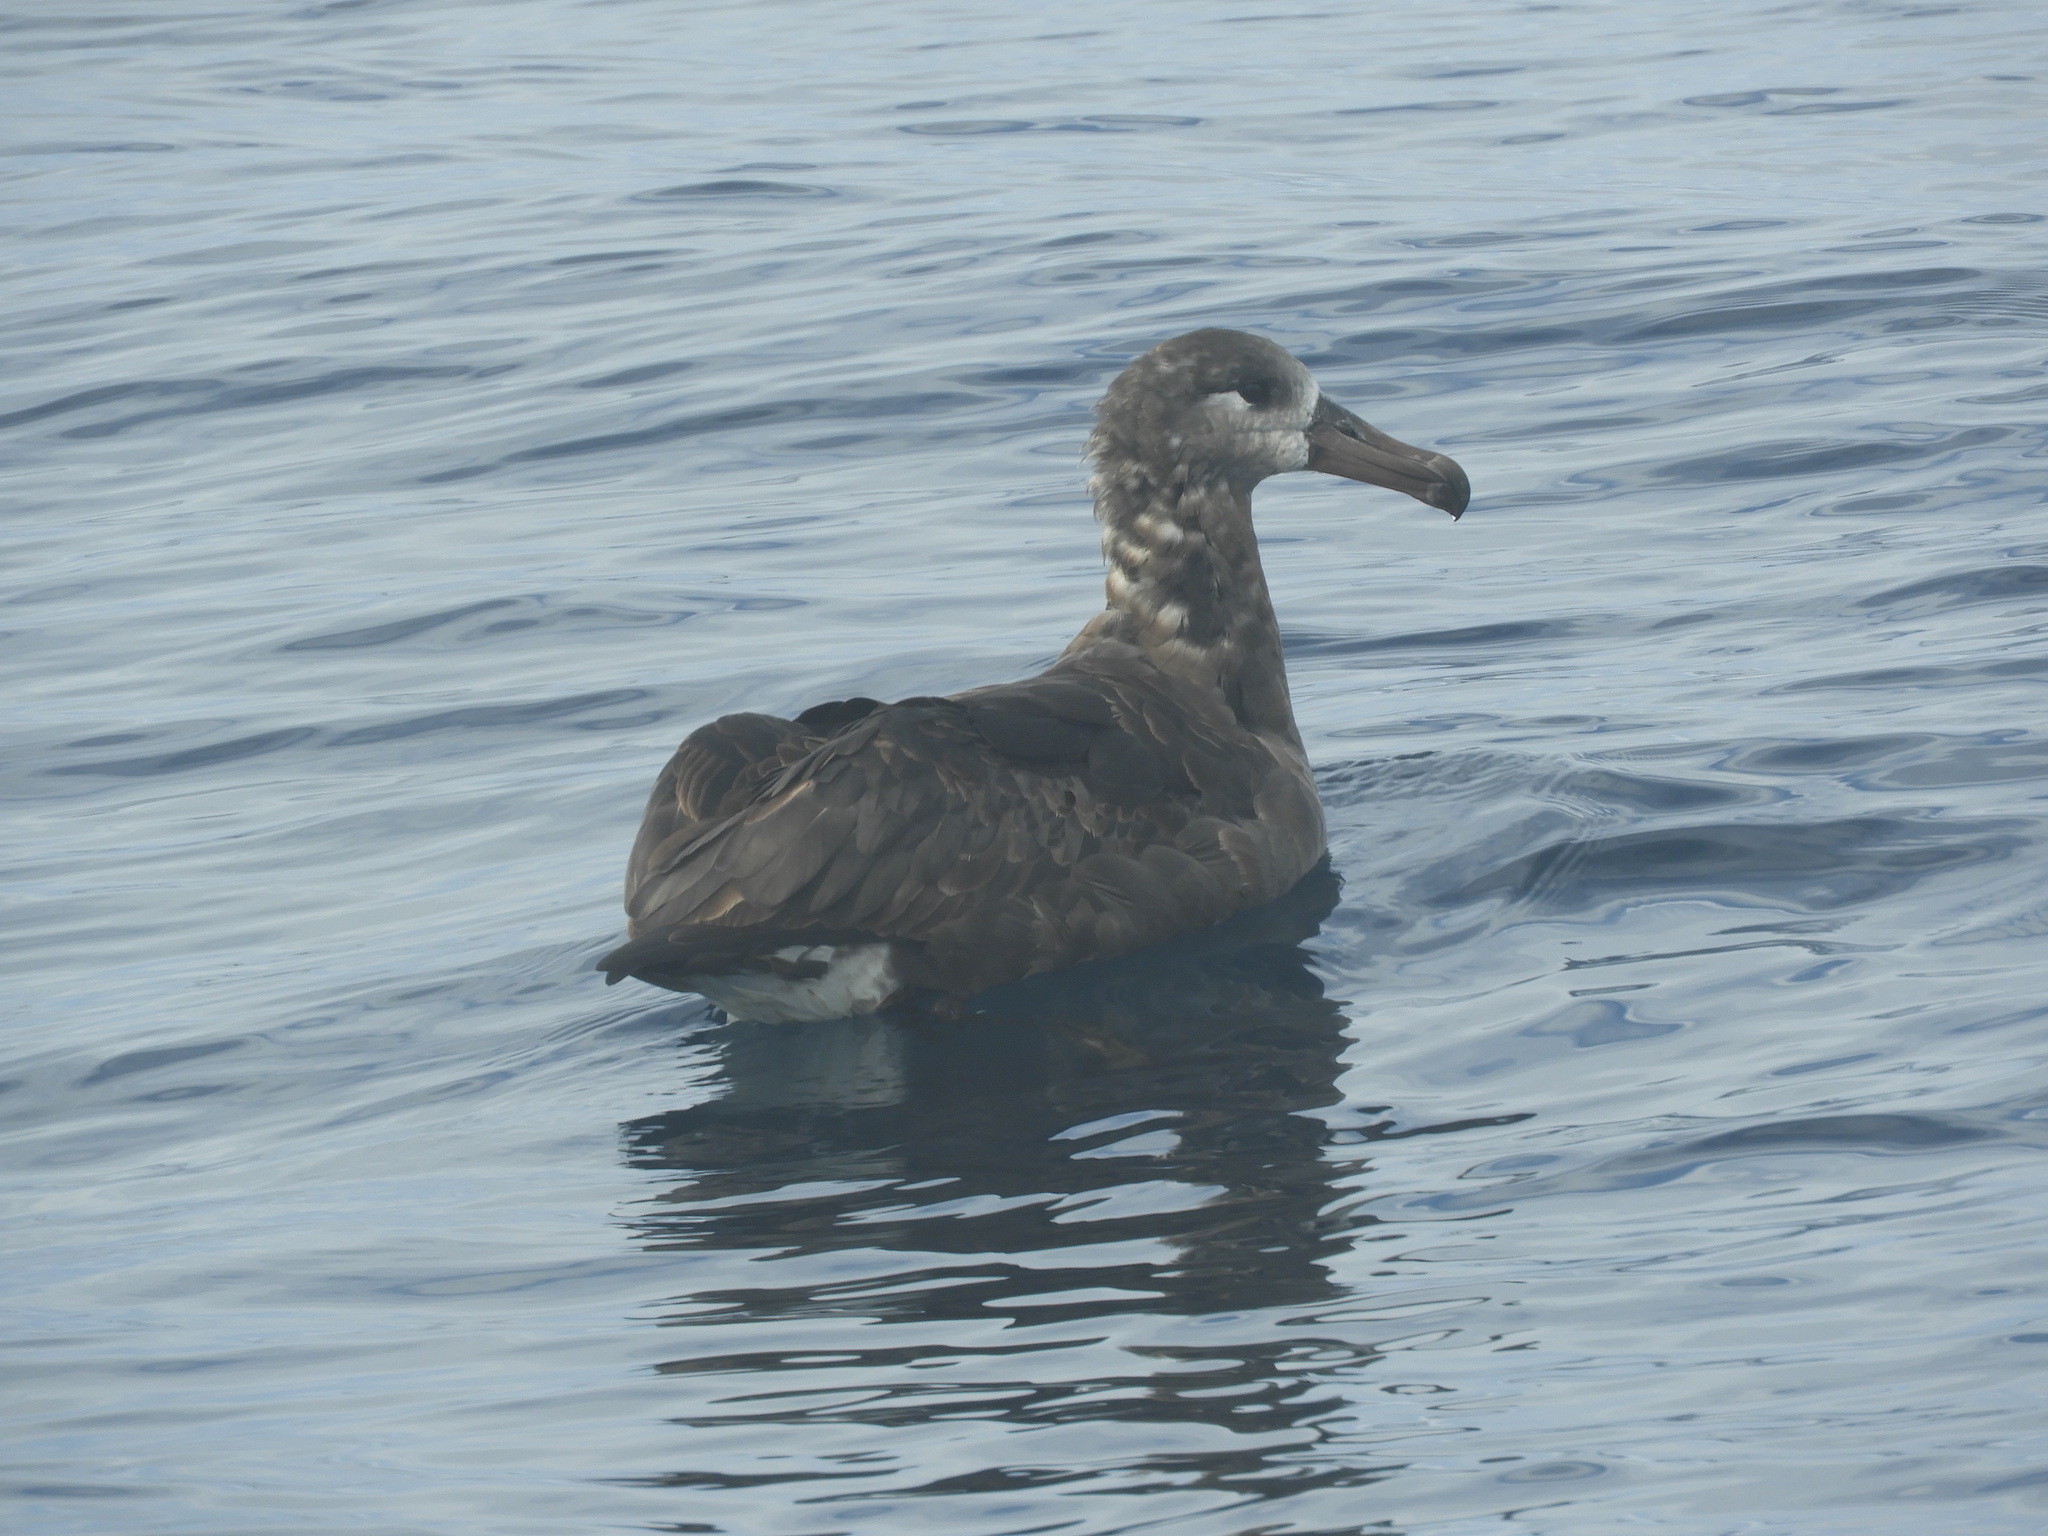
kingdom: Animalia
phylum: Chordata
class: Aves
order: Procellariiformes
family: Diomedeidae
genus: Phoebastria
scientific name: Phoebastria nigripes
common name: Black-footed albatross
